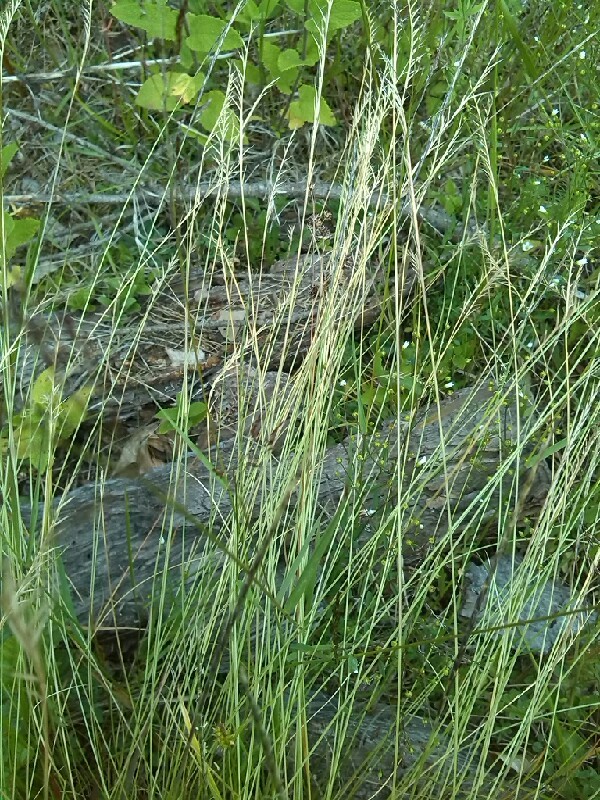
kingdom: Plantae
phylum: Tracheophyta
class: Liliopsida
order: Poales
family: Poaceae
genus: Nardus
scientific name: Nardus stricta
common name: Mat-grass
